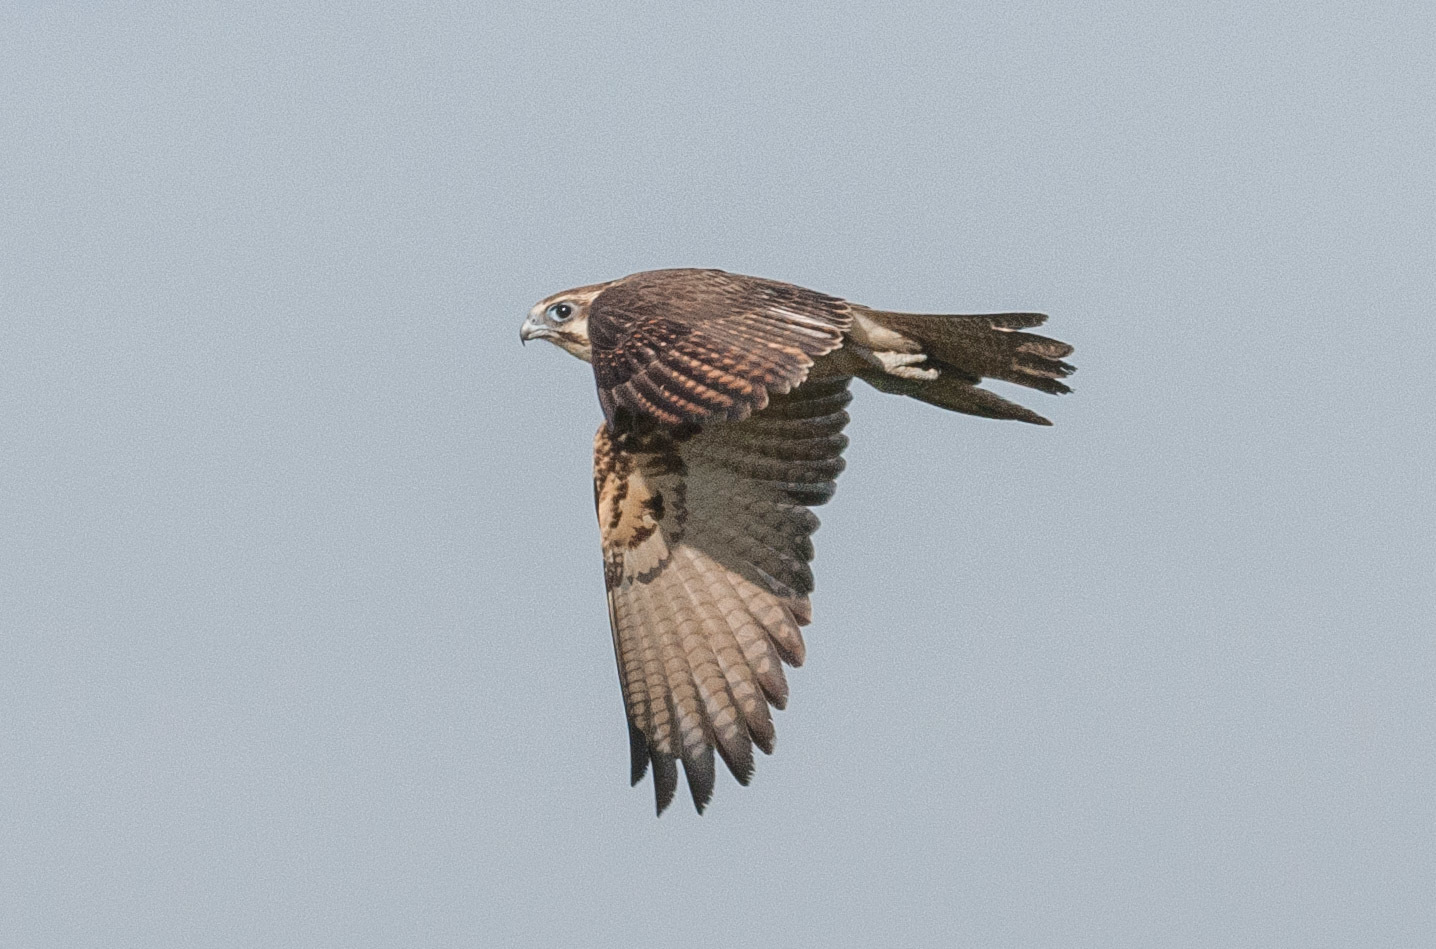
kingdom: Animalia
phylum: Chordata
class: Aves
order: Falconiformes
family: Falconidae
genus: Falco
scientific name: Falco berigora
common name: Brown falcon
